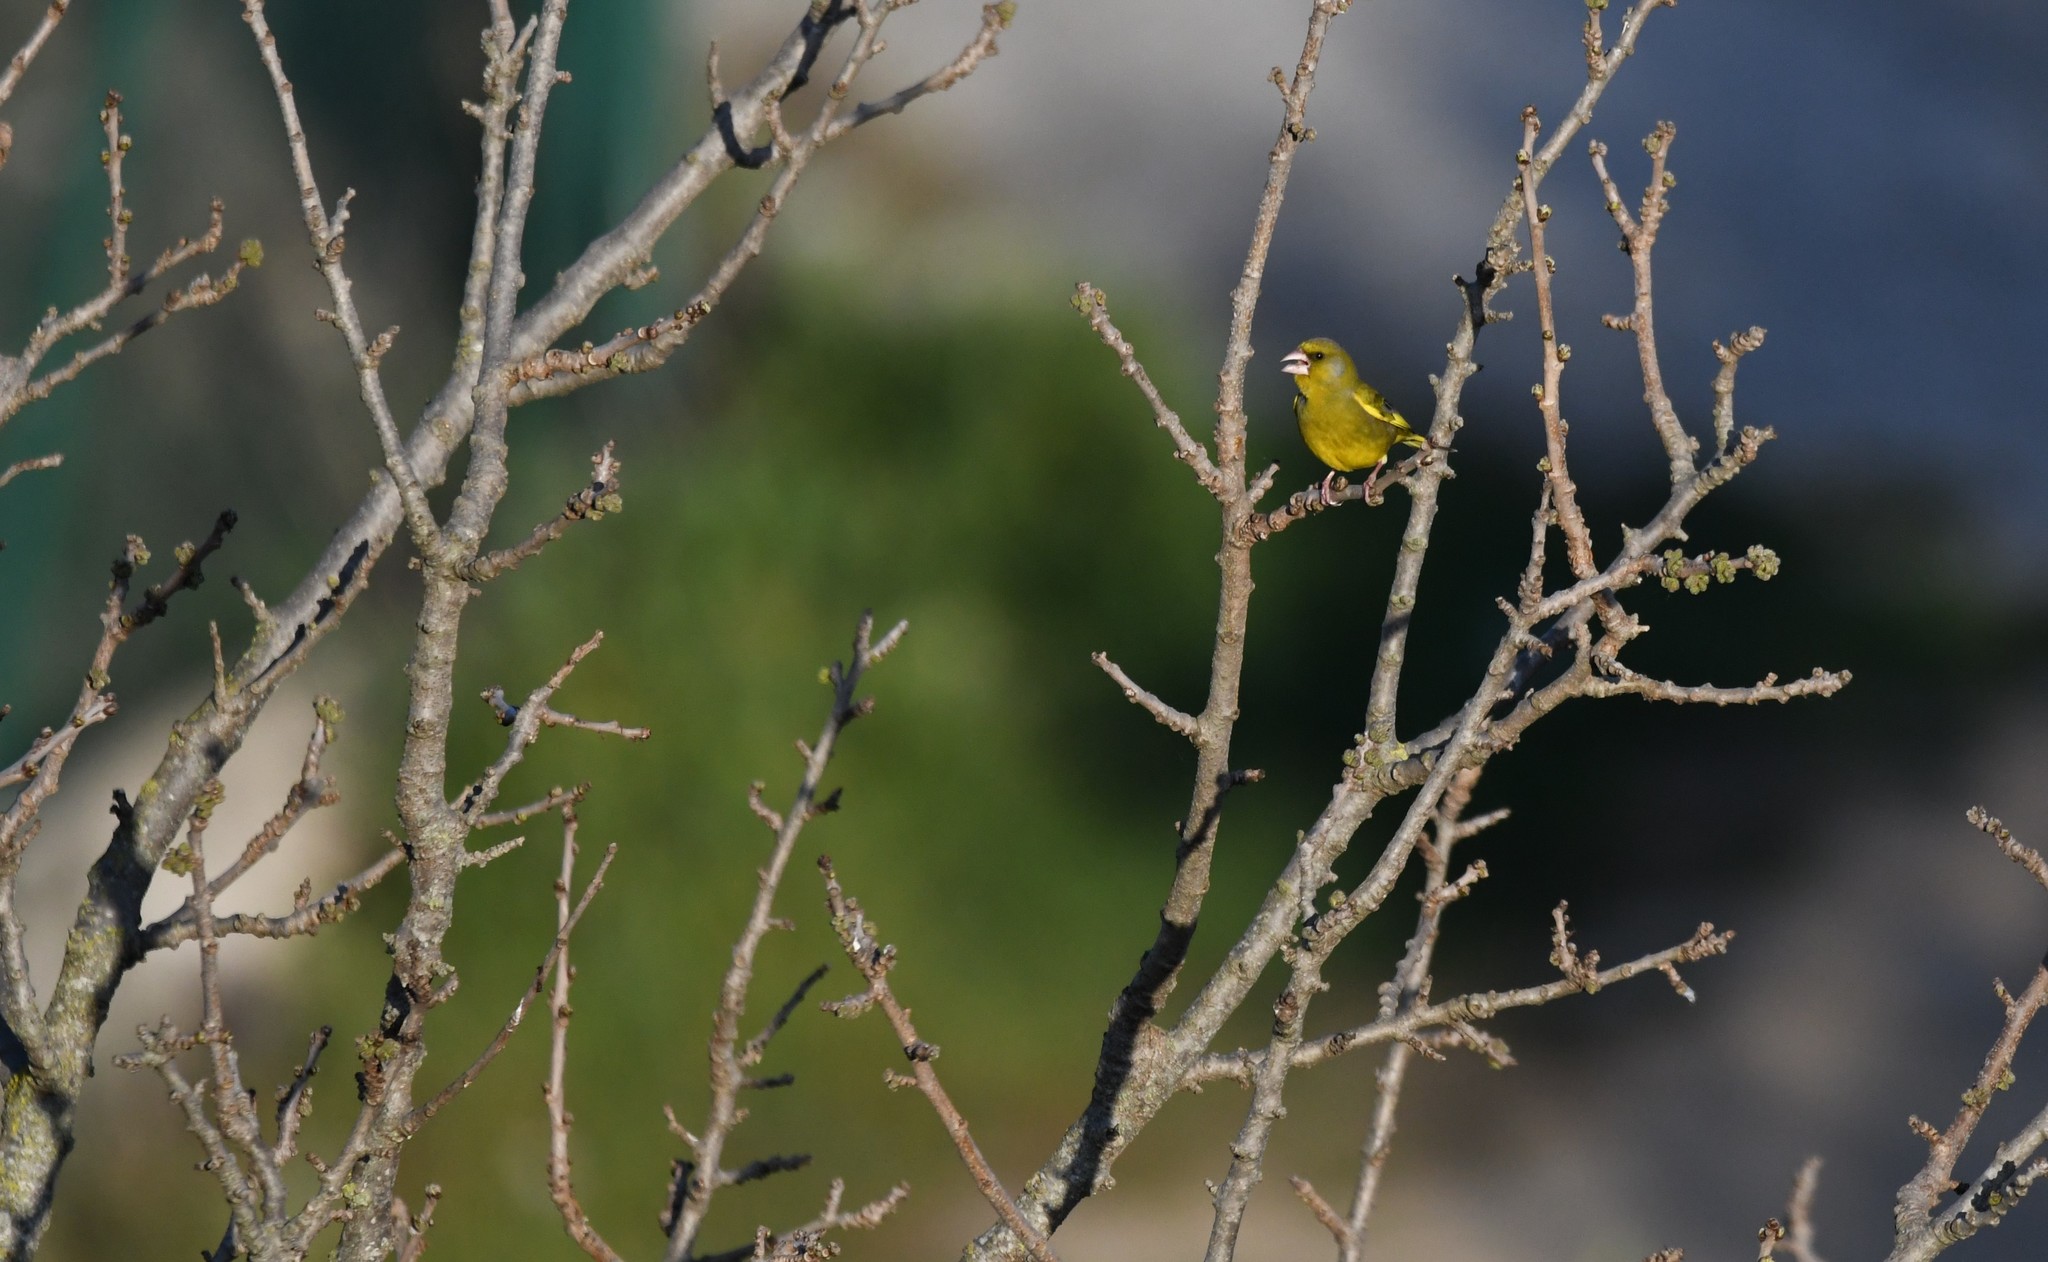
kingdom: Plantae
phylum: Tracheophyta
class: Liliopsida
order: Poales
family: Poaceae
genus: Chloris
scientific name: Chloris chloris
